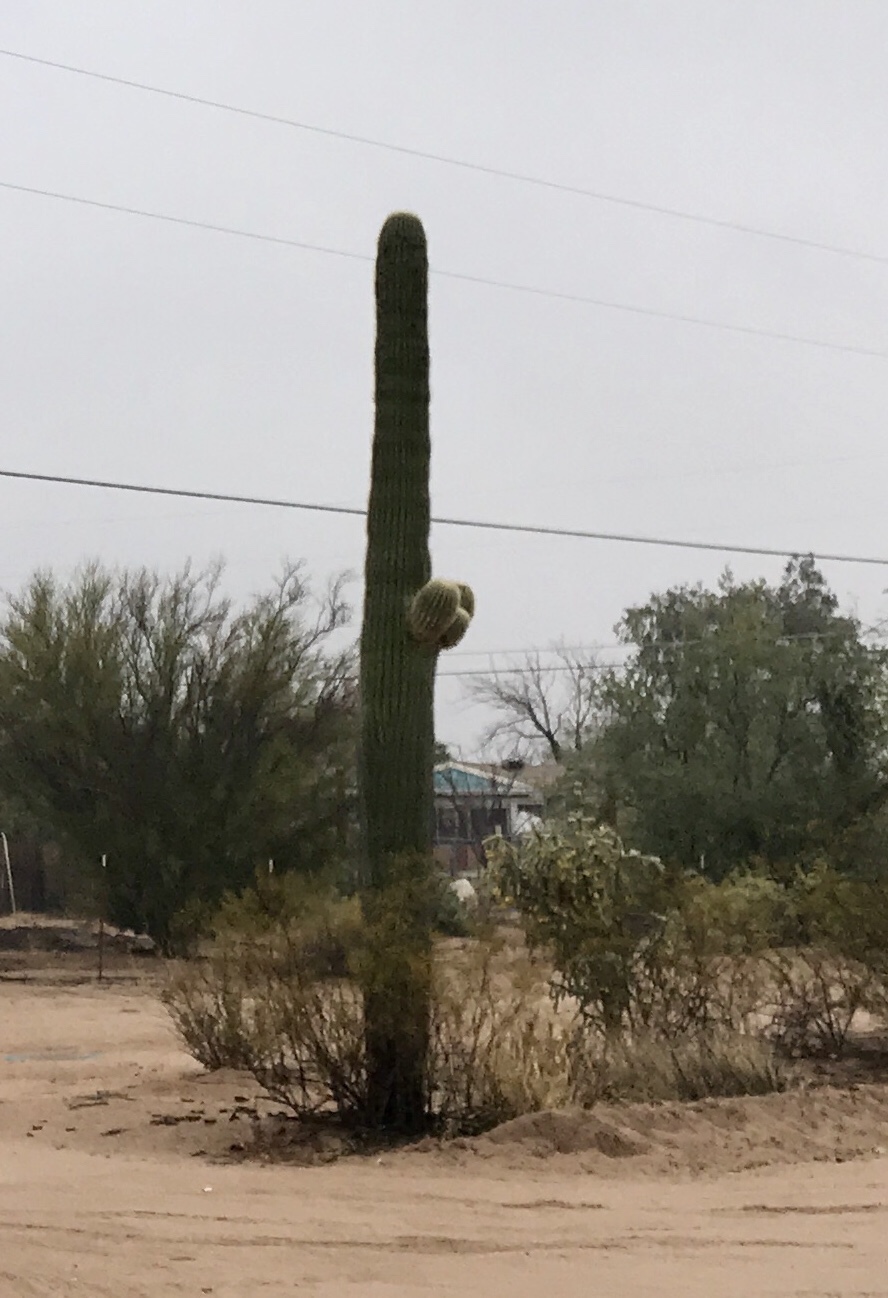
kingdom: Plantae
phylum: Tracheophyta
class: Magnoliopsida
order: Caryophyllales
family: Cactaceae
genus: Carnegiea
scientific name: Carnegiea gigantea
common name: Saguaro
